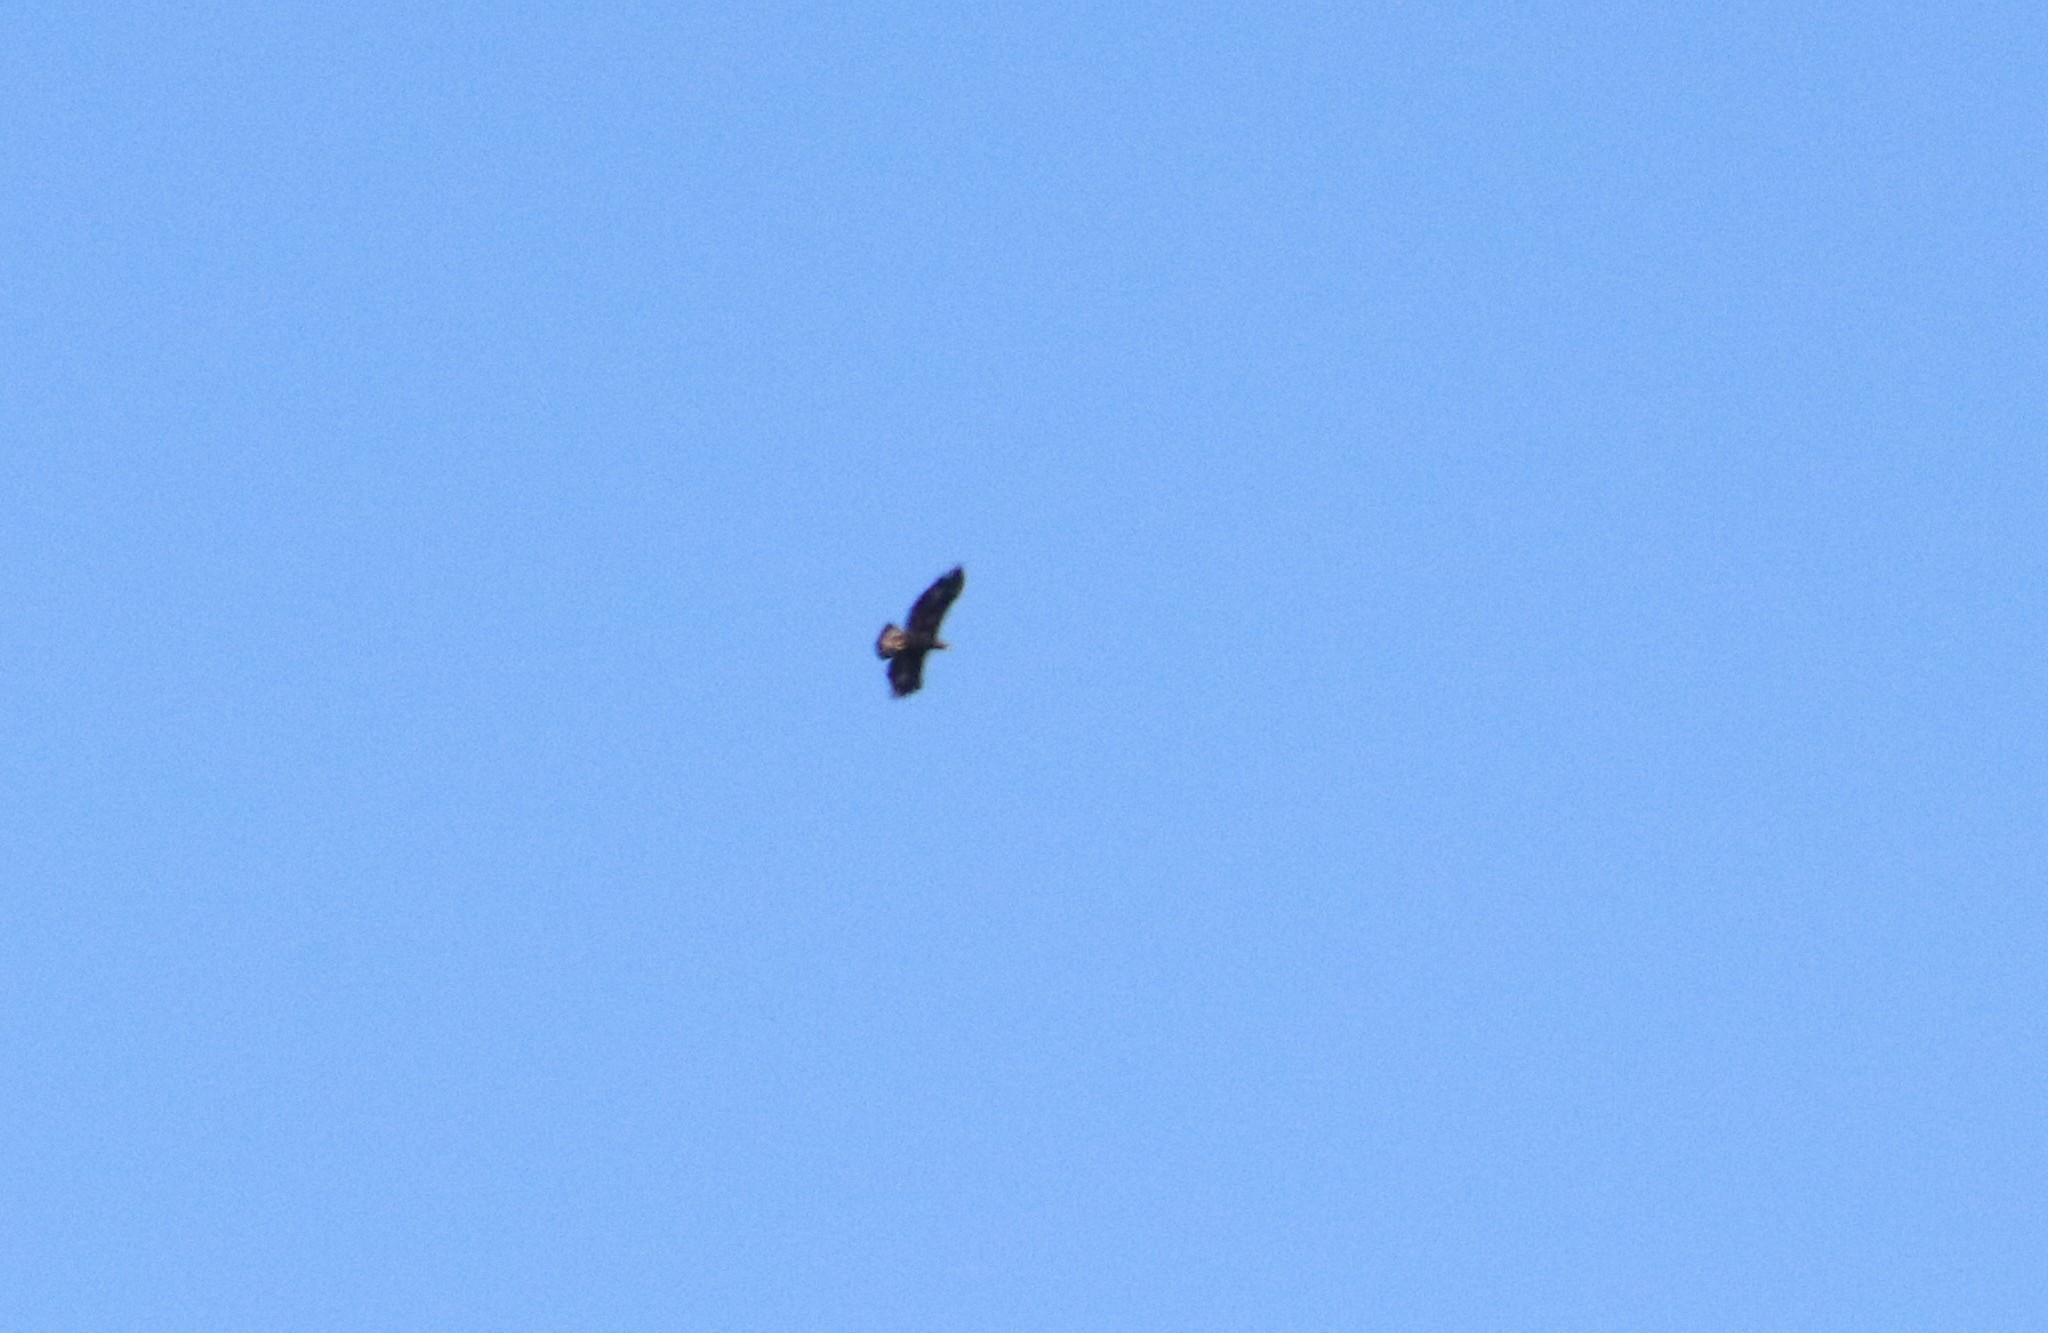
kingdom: Animalia
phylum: Chordata
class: Aves
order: Accipitriformes
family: Accipitridae
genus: Aquila
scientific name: Aquila chrysaetos
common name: Golden eagle
